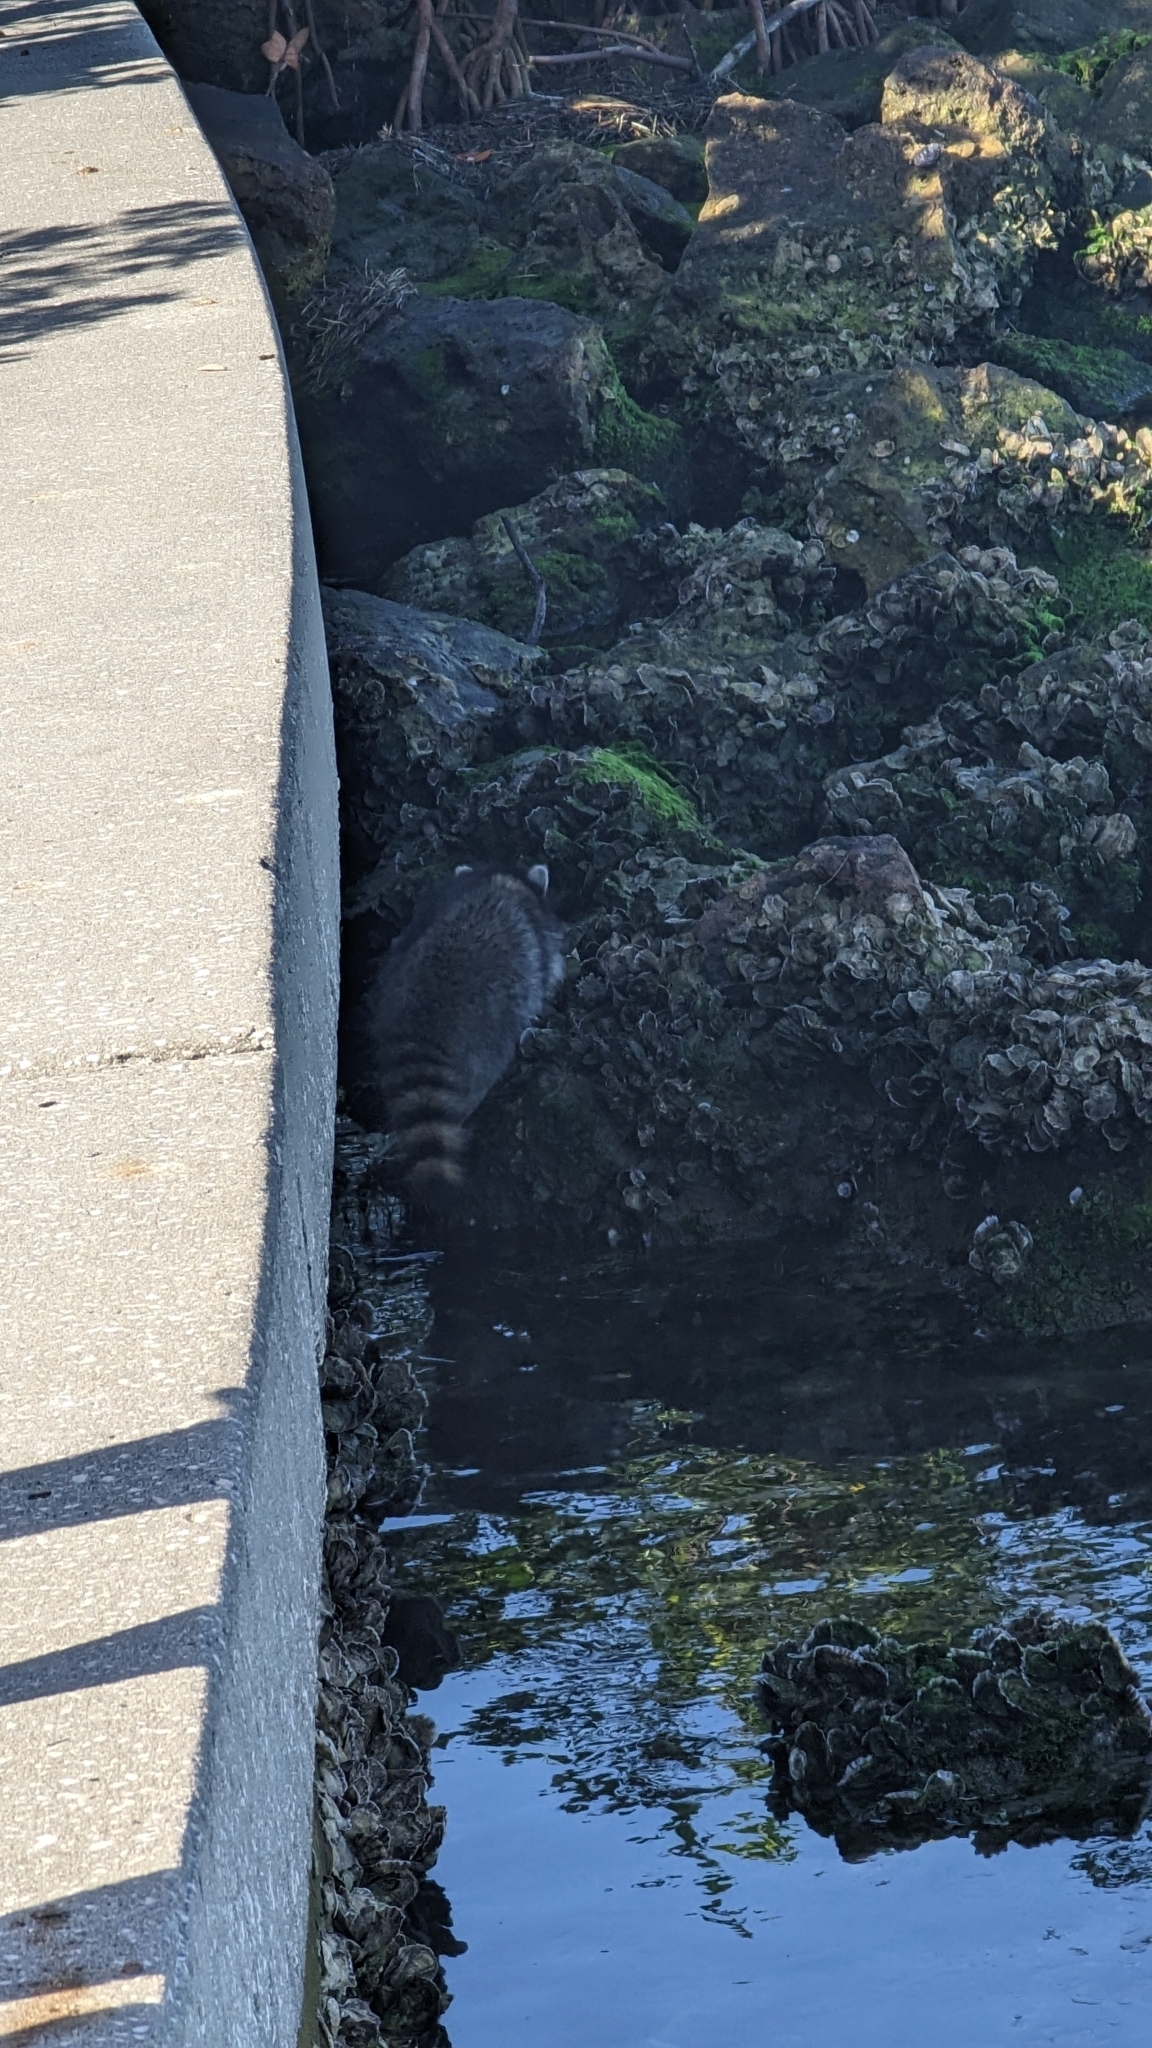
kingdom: Animalia
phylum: Chordata
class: Mammalia
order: Carnivora
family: Procyonidae
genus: Procyon
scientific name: Procyon lotor
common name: Raccoon
